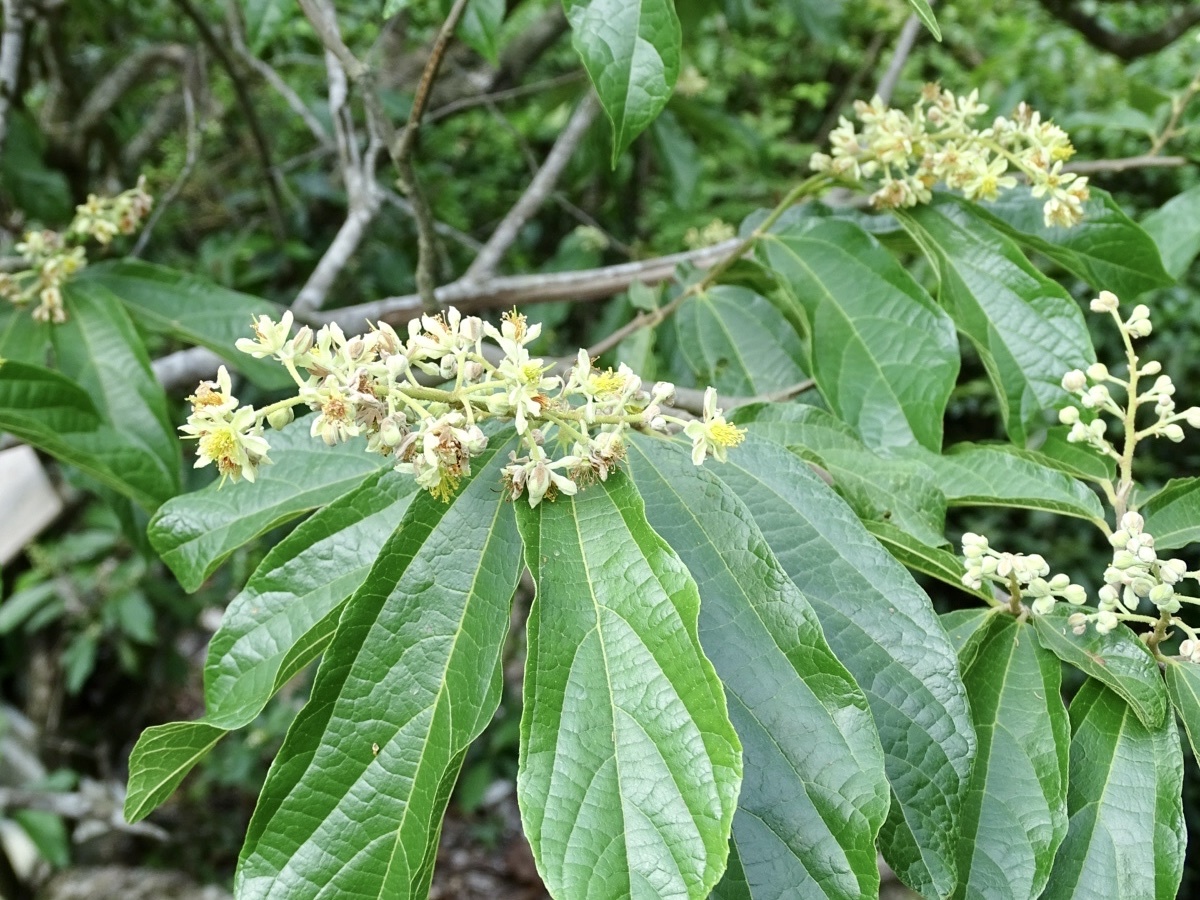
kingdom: Plantae
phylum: Tracheophyta
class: Magnoliopsida
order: Malvales
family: Malvaceae
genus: Microcos
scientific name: Microcos paniculata
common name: Microcos
